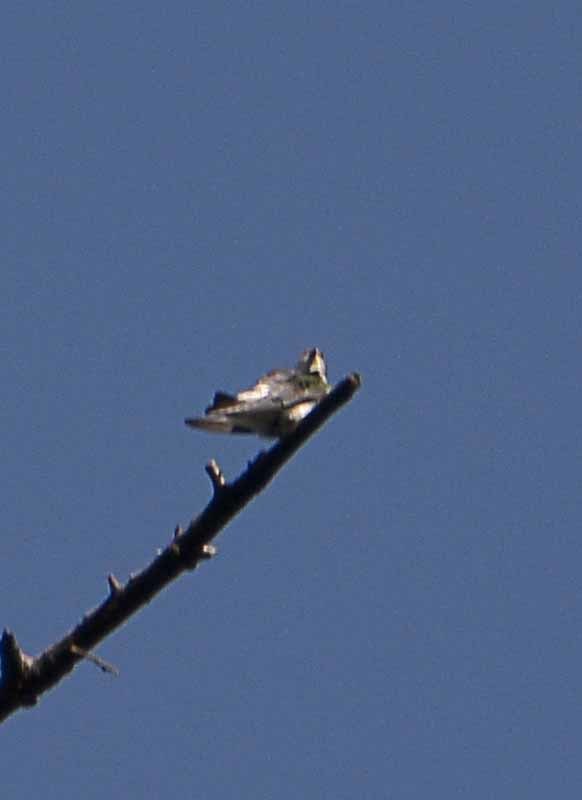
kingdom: Animalia
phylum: Chordata
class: Aves
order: Passeriformes
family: Hirundinidae
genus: Tachycineta
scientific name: Tachycineta thalassina
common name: Violet-green swallow
